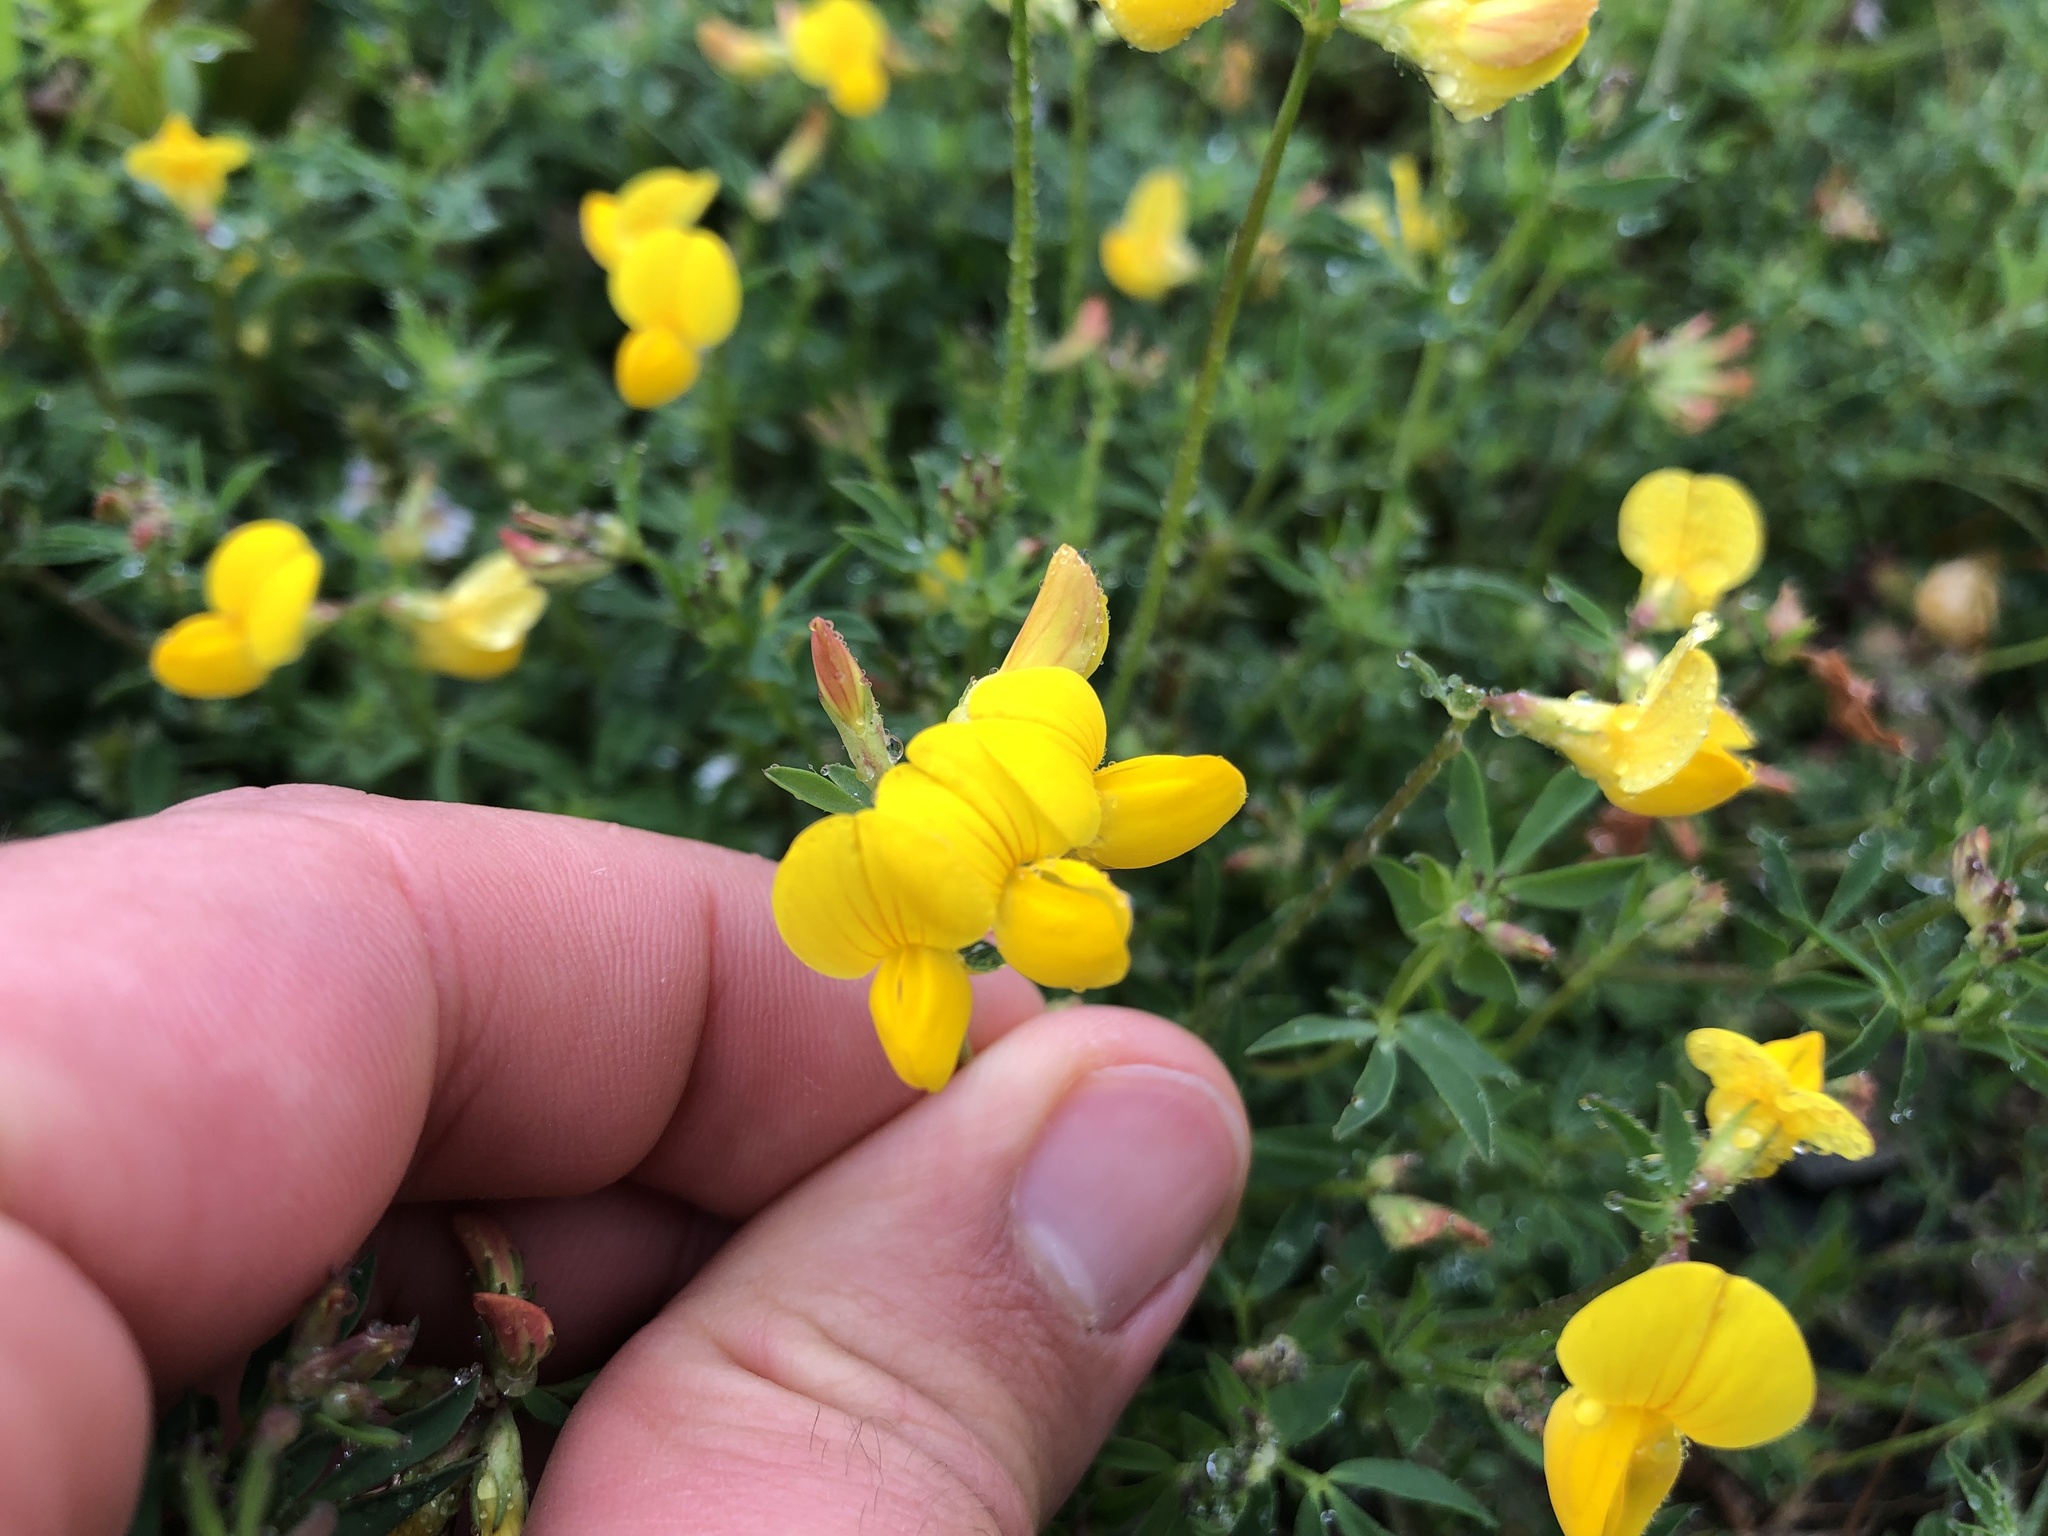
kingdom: Plantae
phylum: Tracheophyta
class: Magnoliopsida
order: Fabales
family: Fabaceae
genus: Lotus
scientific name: Lotus corniculatus
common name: Common bird's-foot-trefoil
